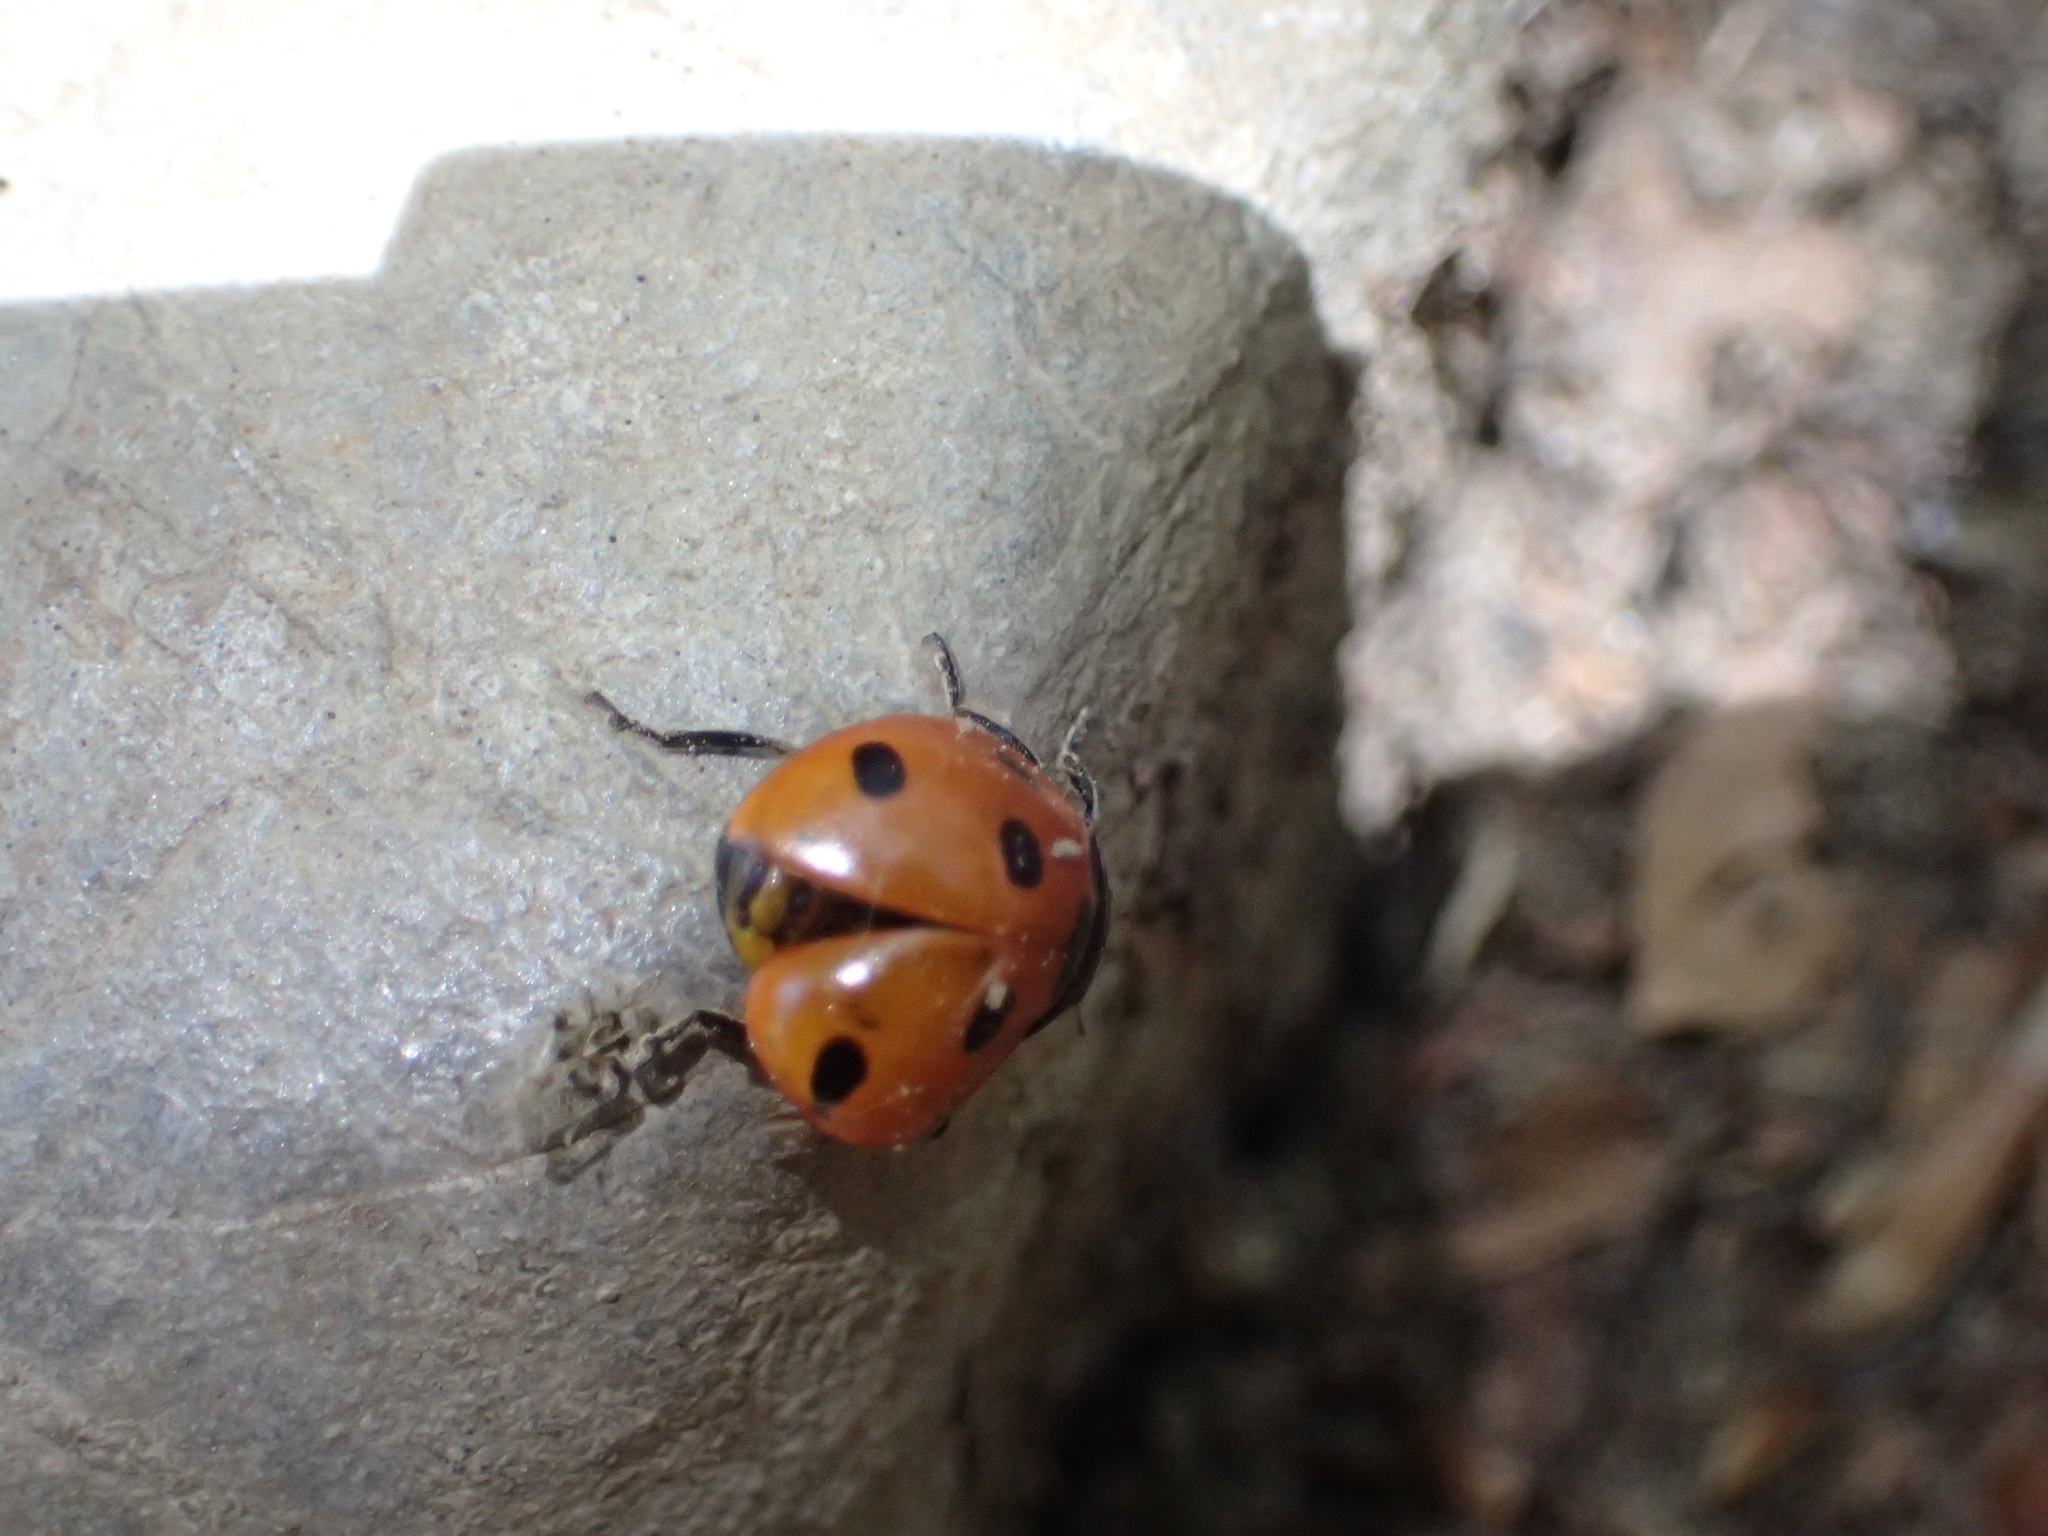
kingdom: Animalia
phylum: Arthropoda
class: Insecta
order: Coleoptera
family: Coccinellidae
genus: Coccinella
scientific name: Coccinella septempunctata
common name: Sevenspotted lady beetle
